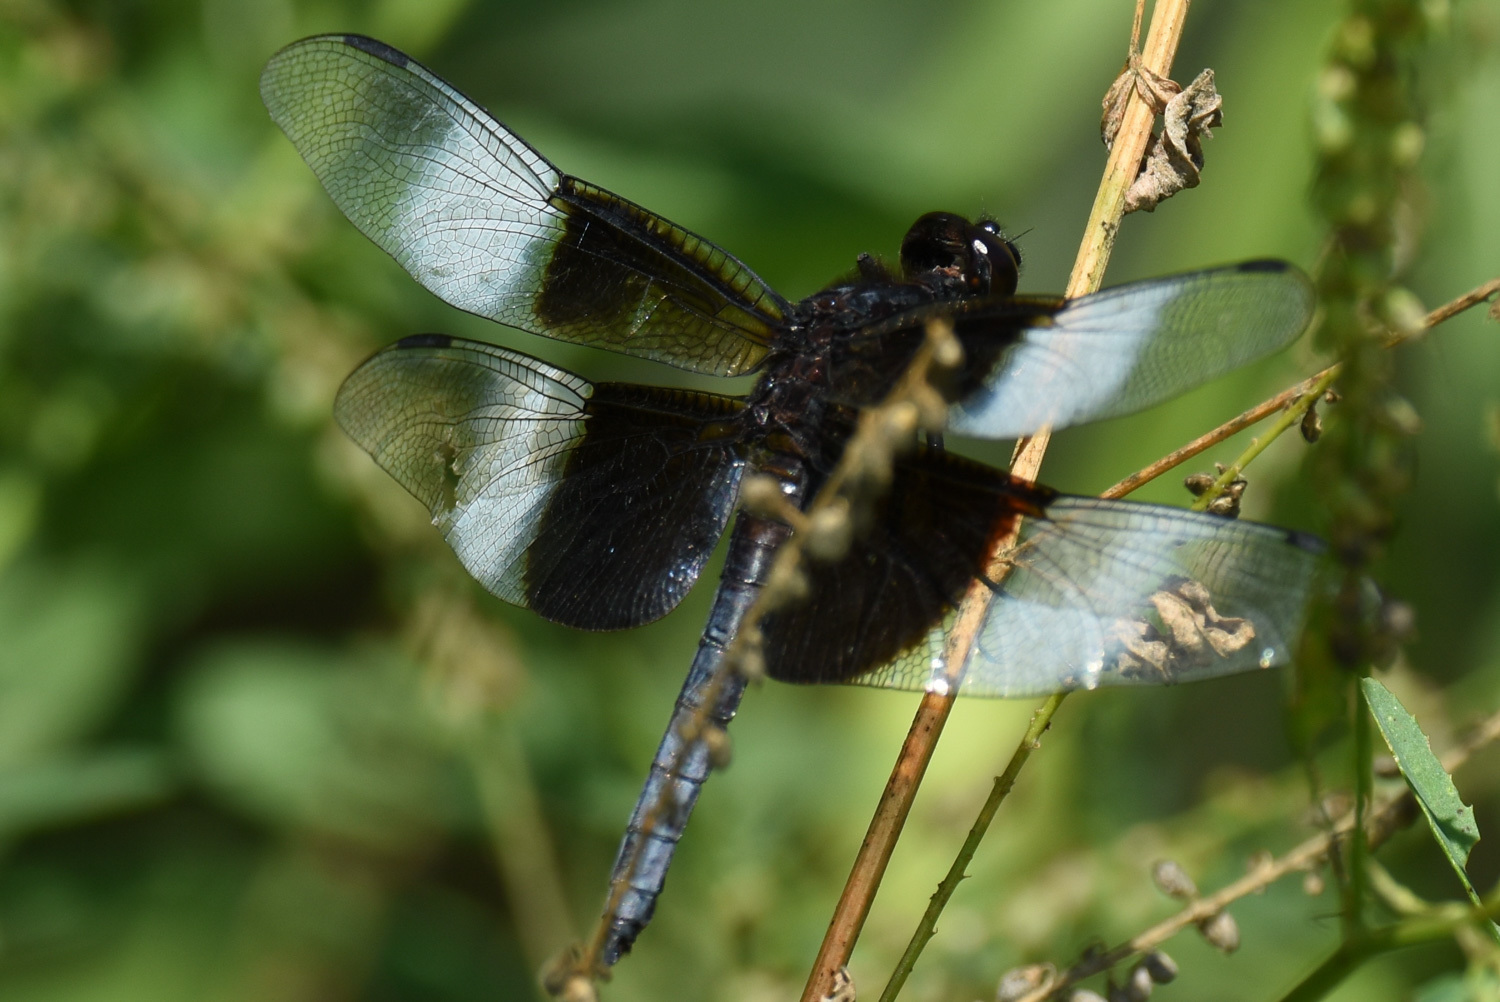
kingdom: Animalia
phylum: Arthropoda
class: Insecta
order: Odonata
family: Libellulidae
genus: Libellula
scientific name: Libellula luctuosa
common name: Widow skimmer
